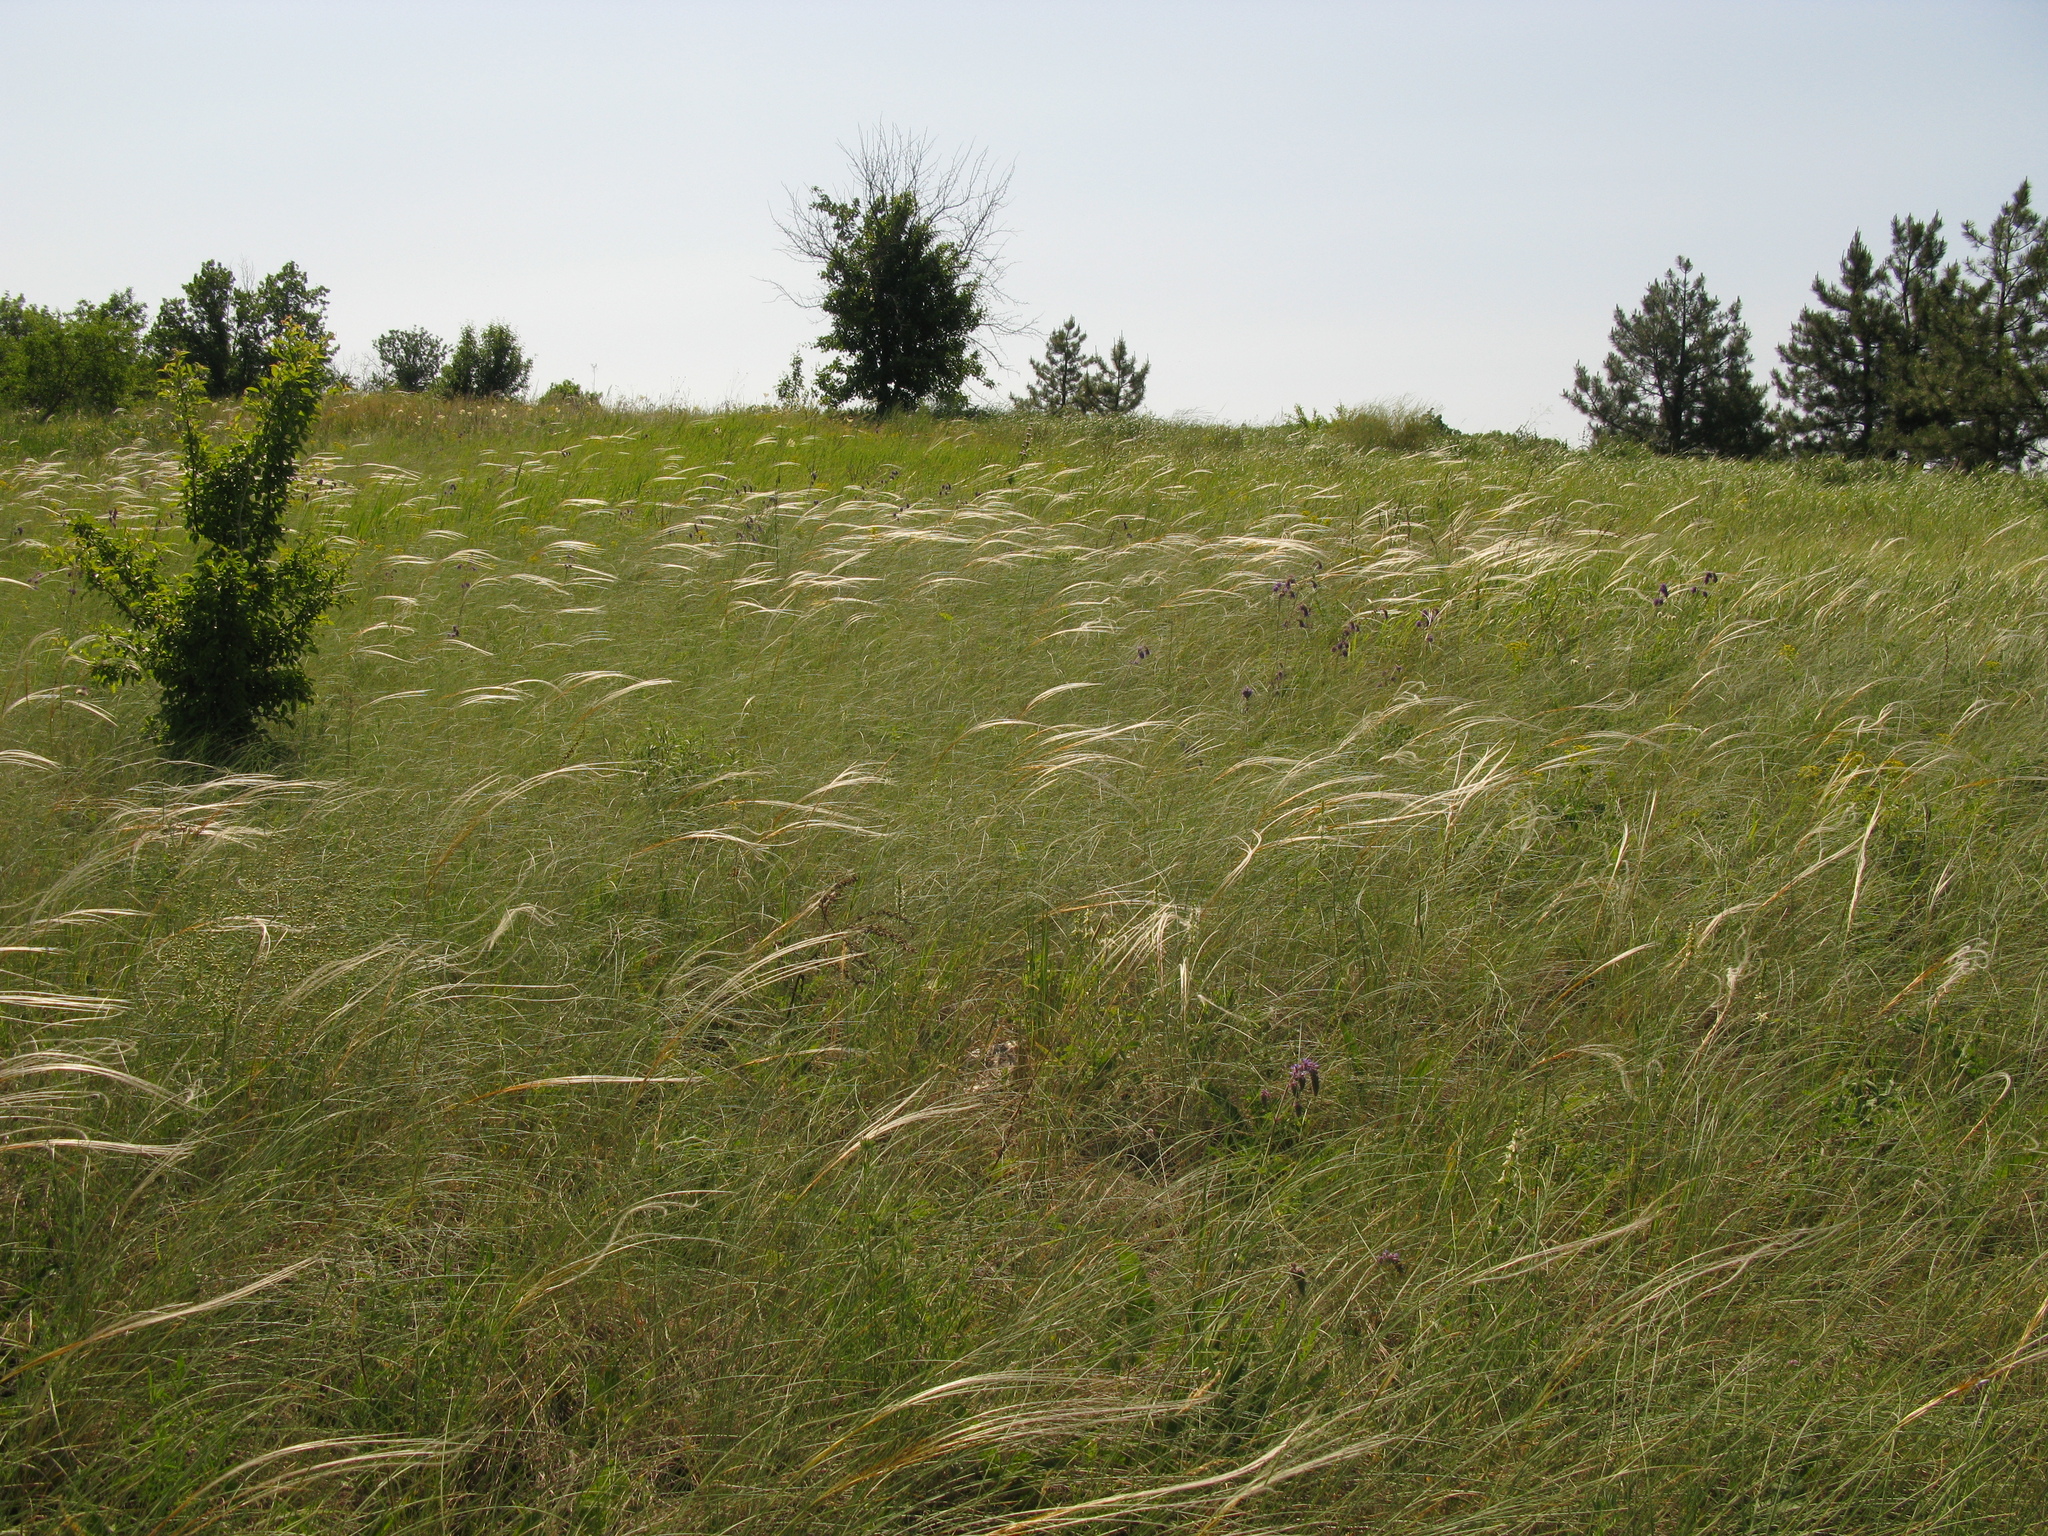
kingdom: Plantae
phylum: Tracheophyta
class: Magnoliopsida
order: Lamiales
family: Lamiaceae
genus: Salvia
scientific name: Salvia nutans
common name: Nodding sage
